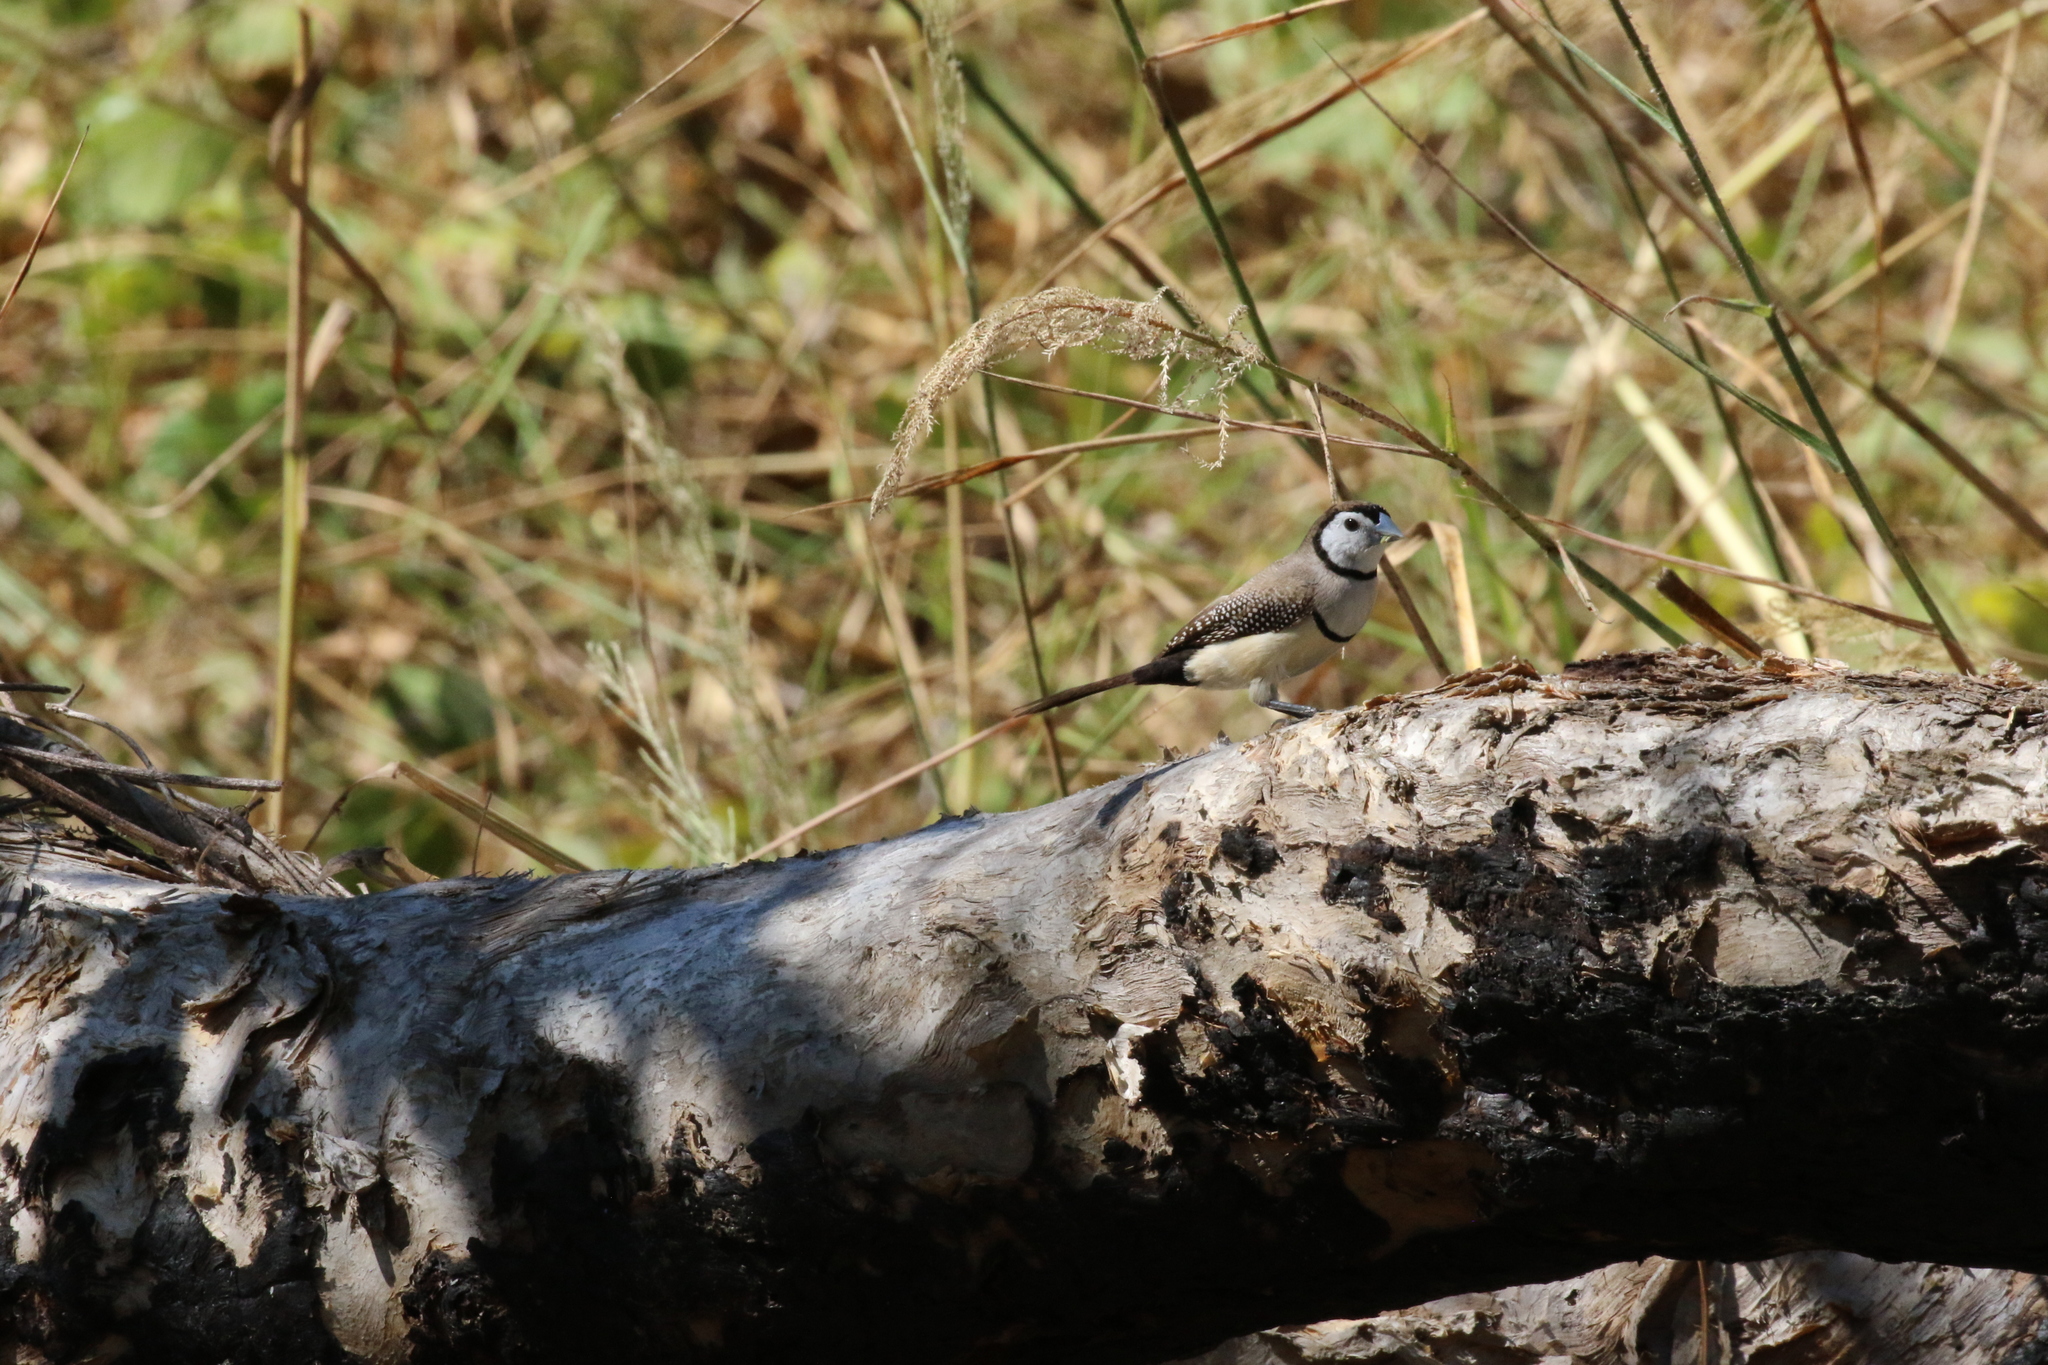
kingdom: Animalia
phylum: Chordata
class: Aves
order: Passeriformes
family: Estrildidae
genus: Taeniopygia
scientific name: Taeniopygia bichenovii
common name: Double-barred finch
